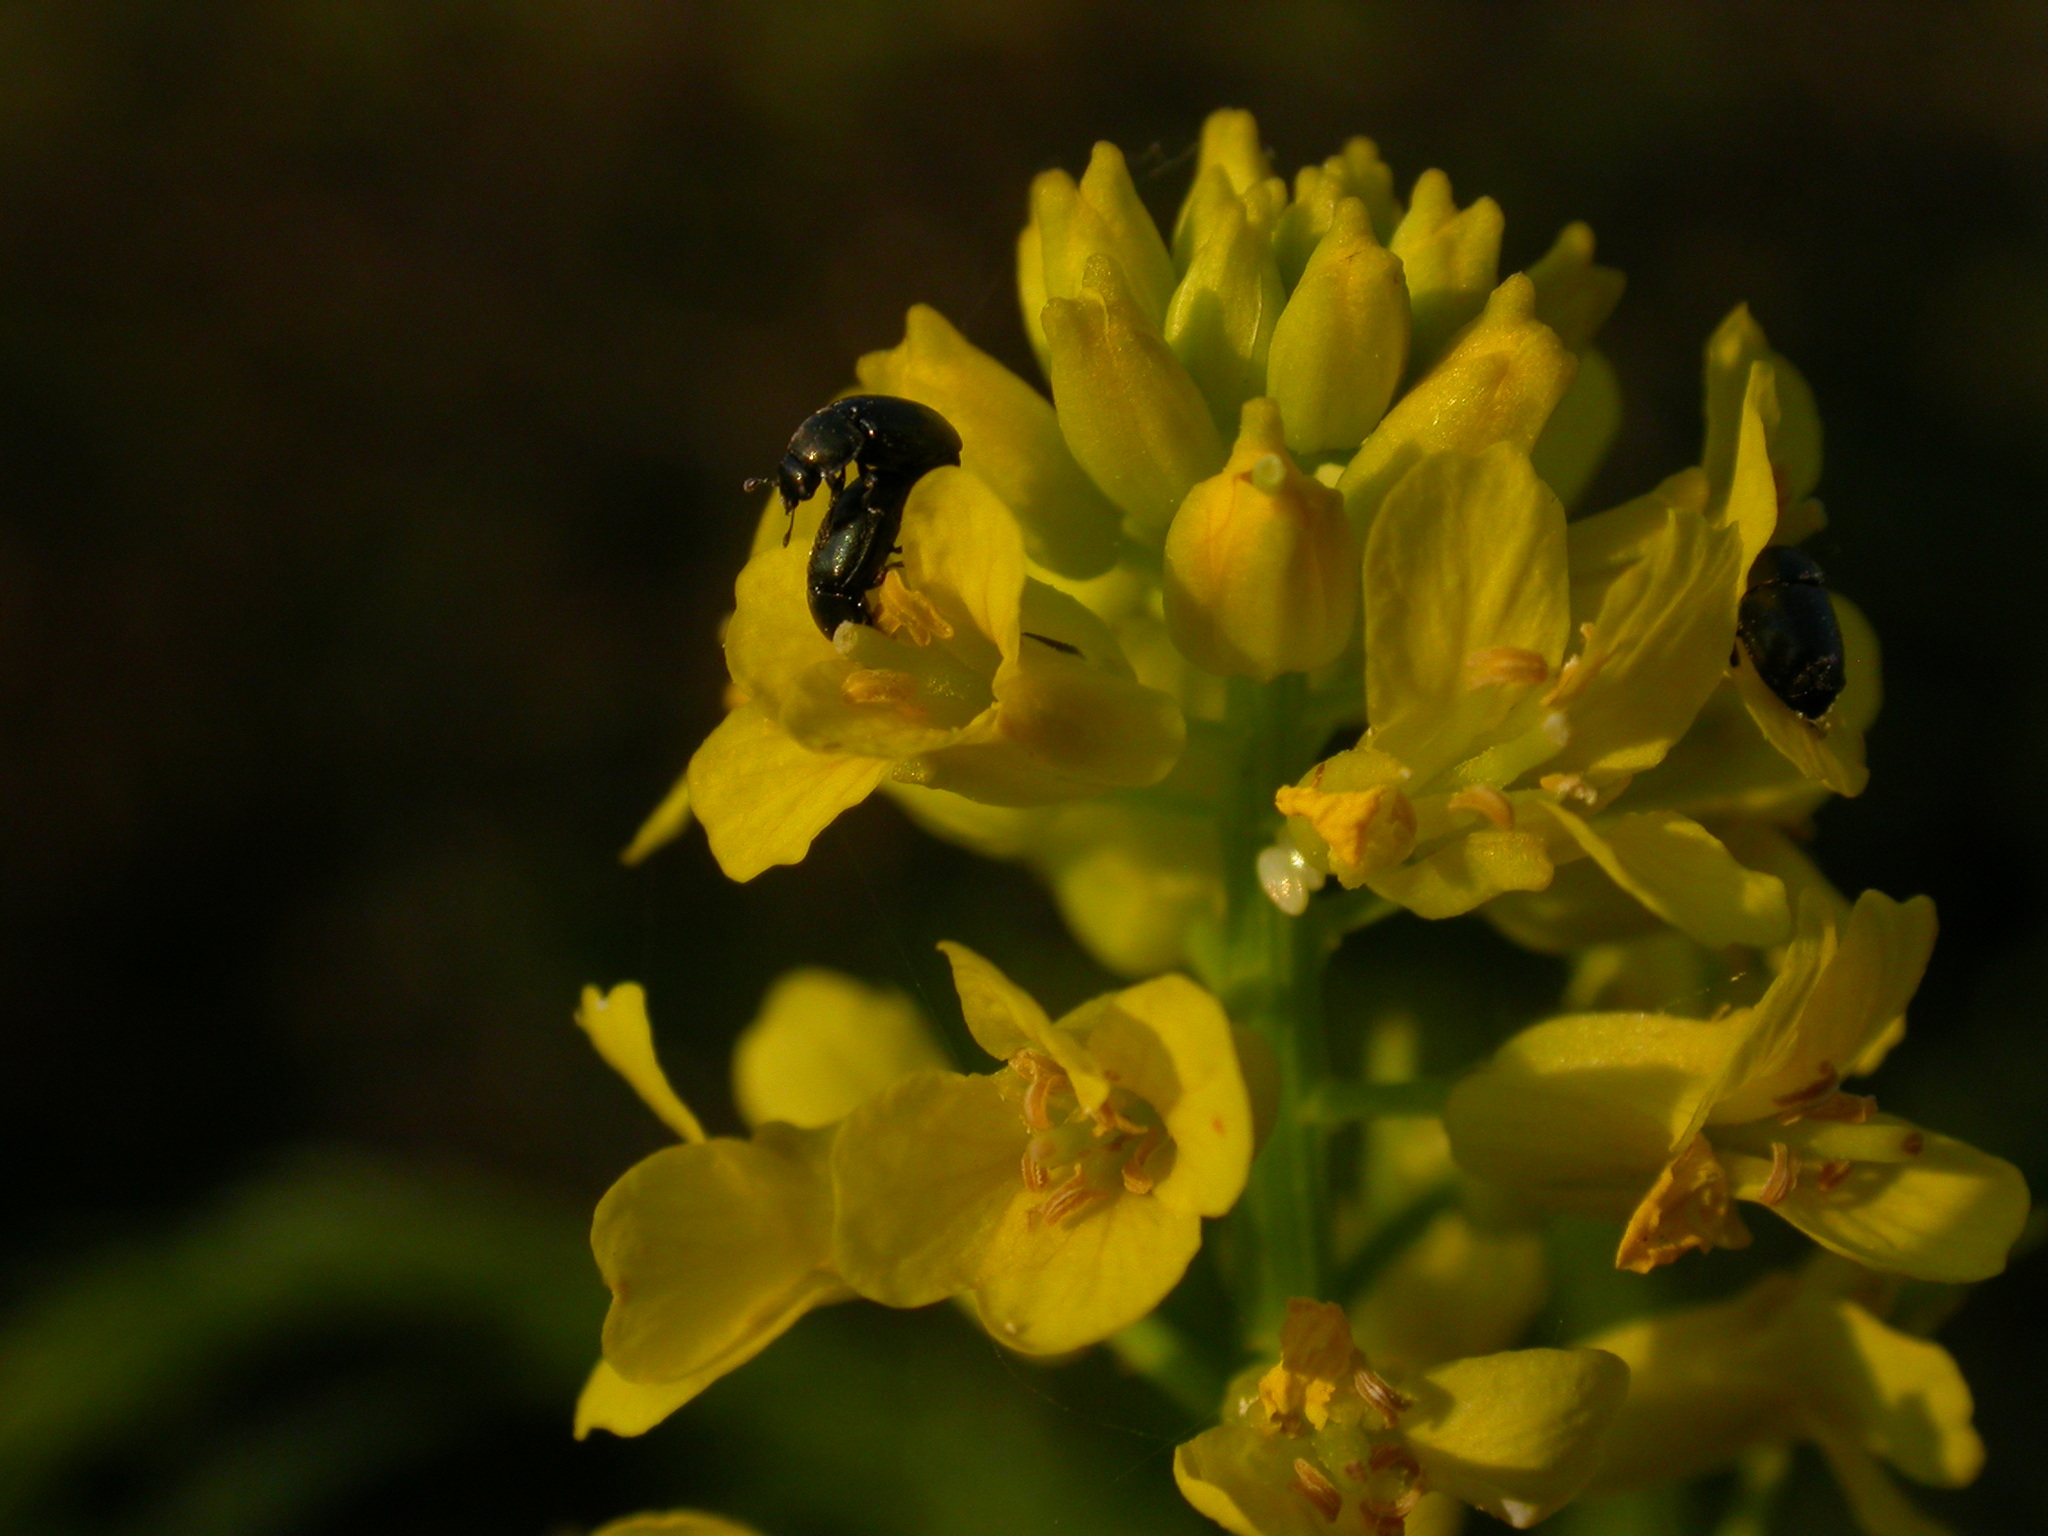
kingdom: Plantae
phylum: Tracheophyta
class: Magnoliopsida
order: Brassicales
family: Brassicaceae
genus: Barbarea
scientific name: Barbarea vulgaris
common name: Cressy-greens
